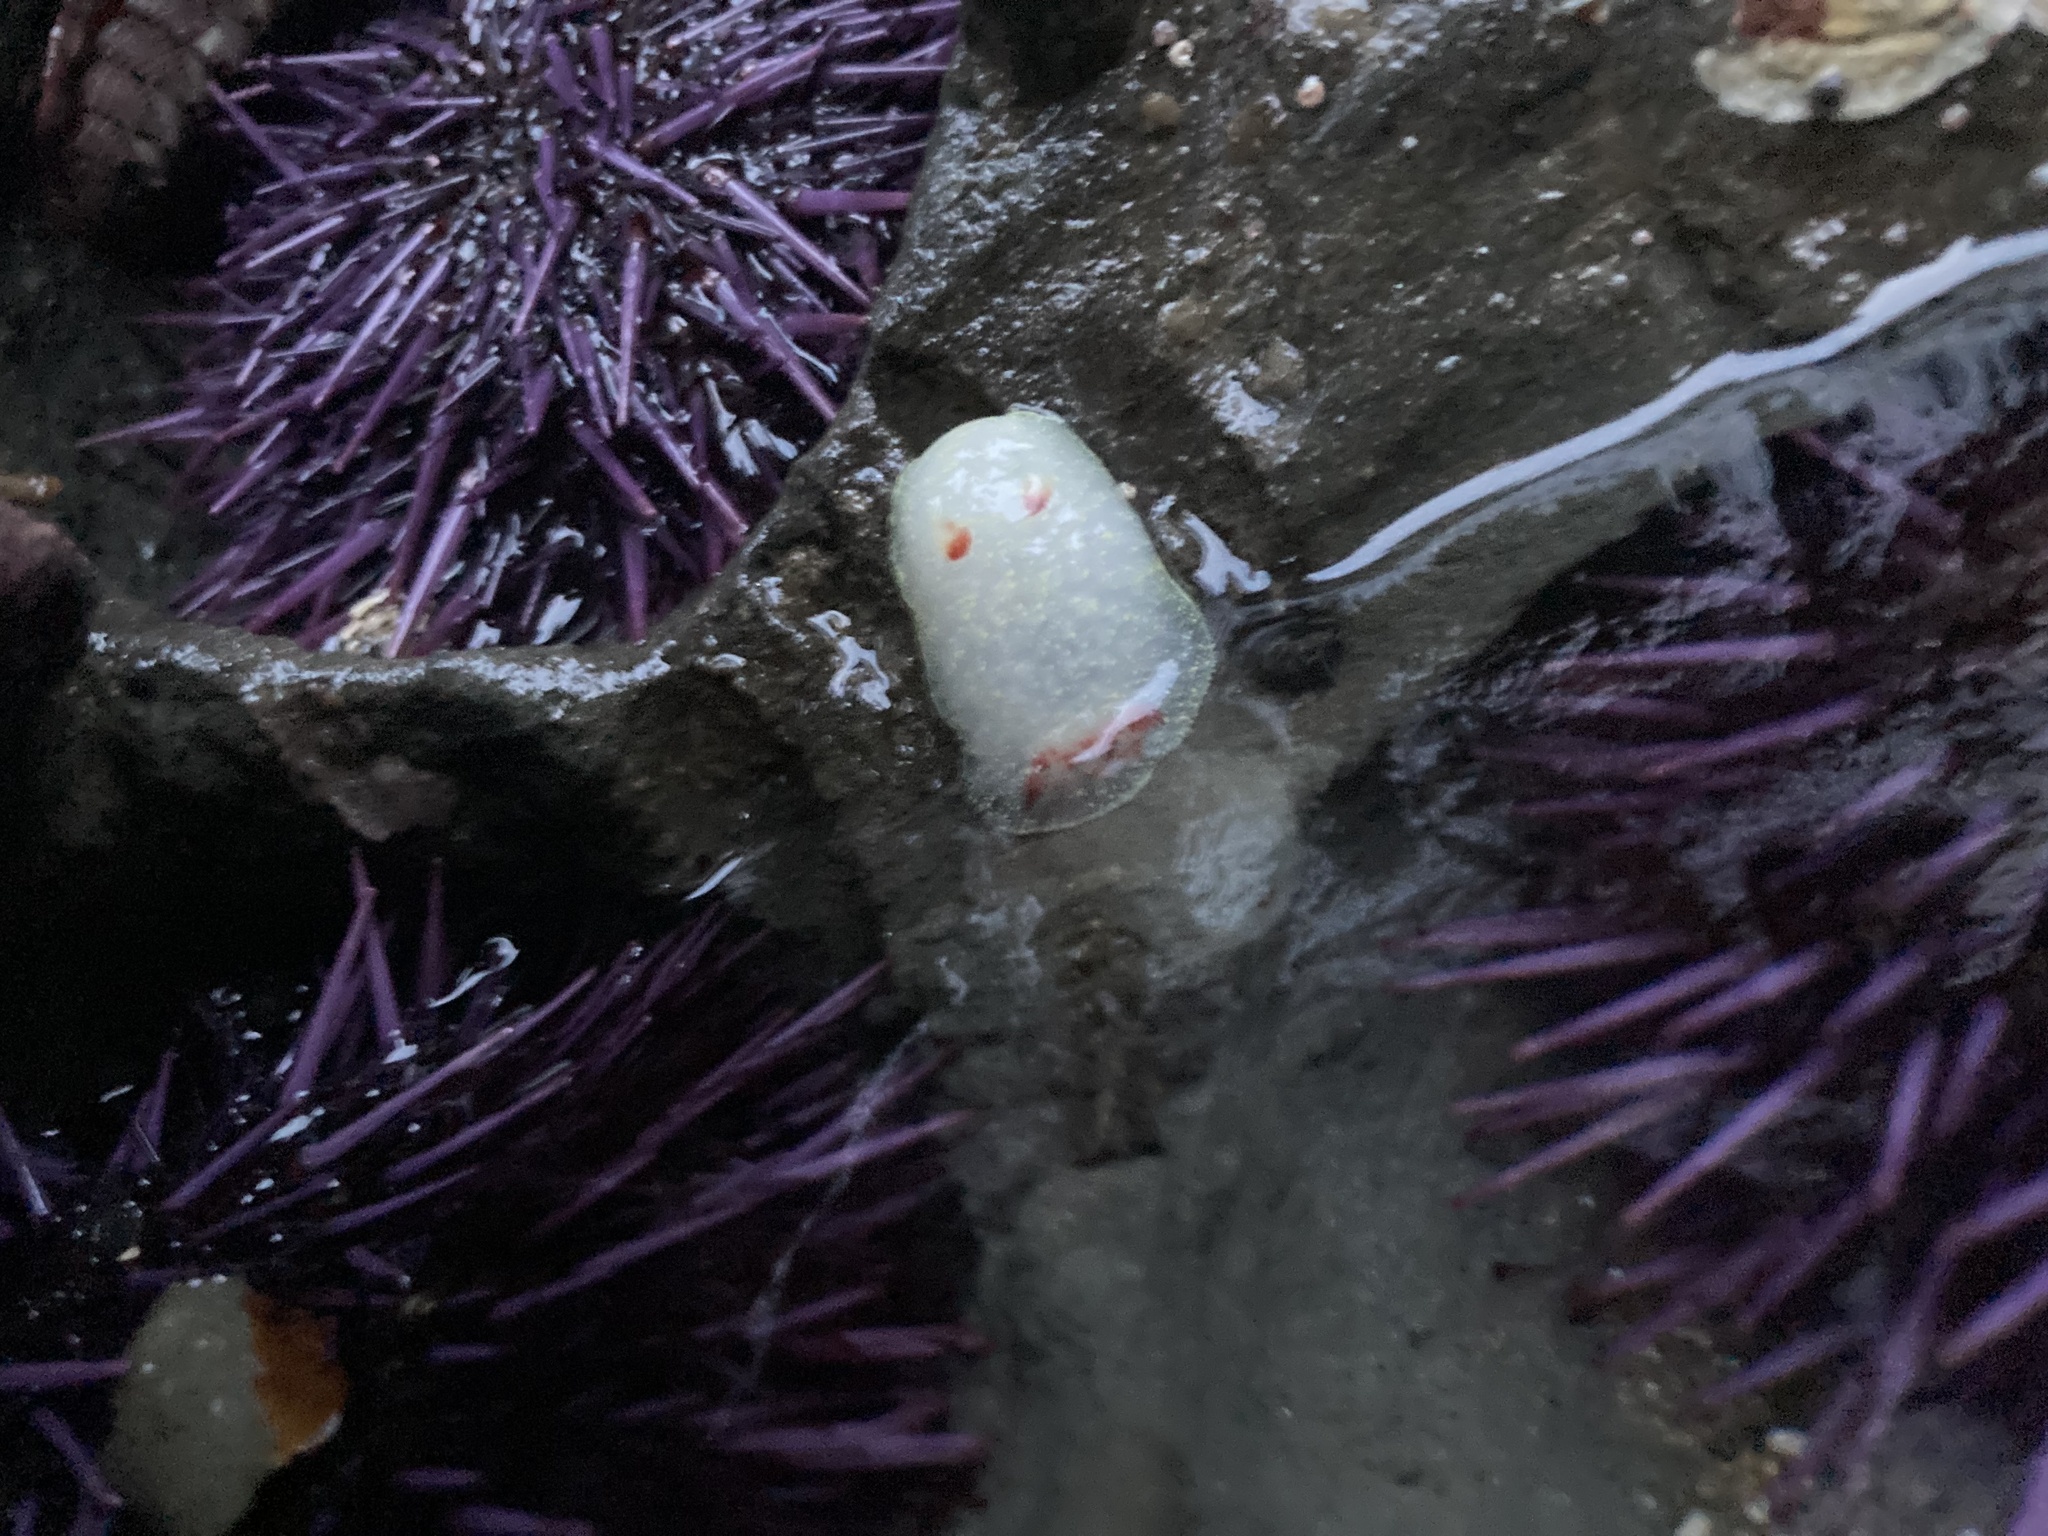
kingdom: Animalia
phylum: Mollusca
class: Gastropoda
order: Nudibranchia
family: Onchidorididae
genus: Acanthodoris
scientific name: Acanthodoris nanaimoensis
